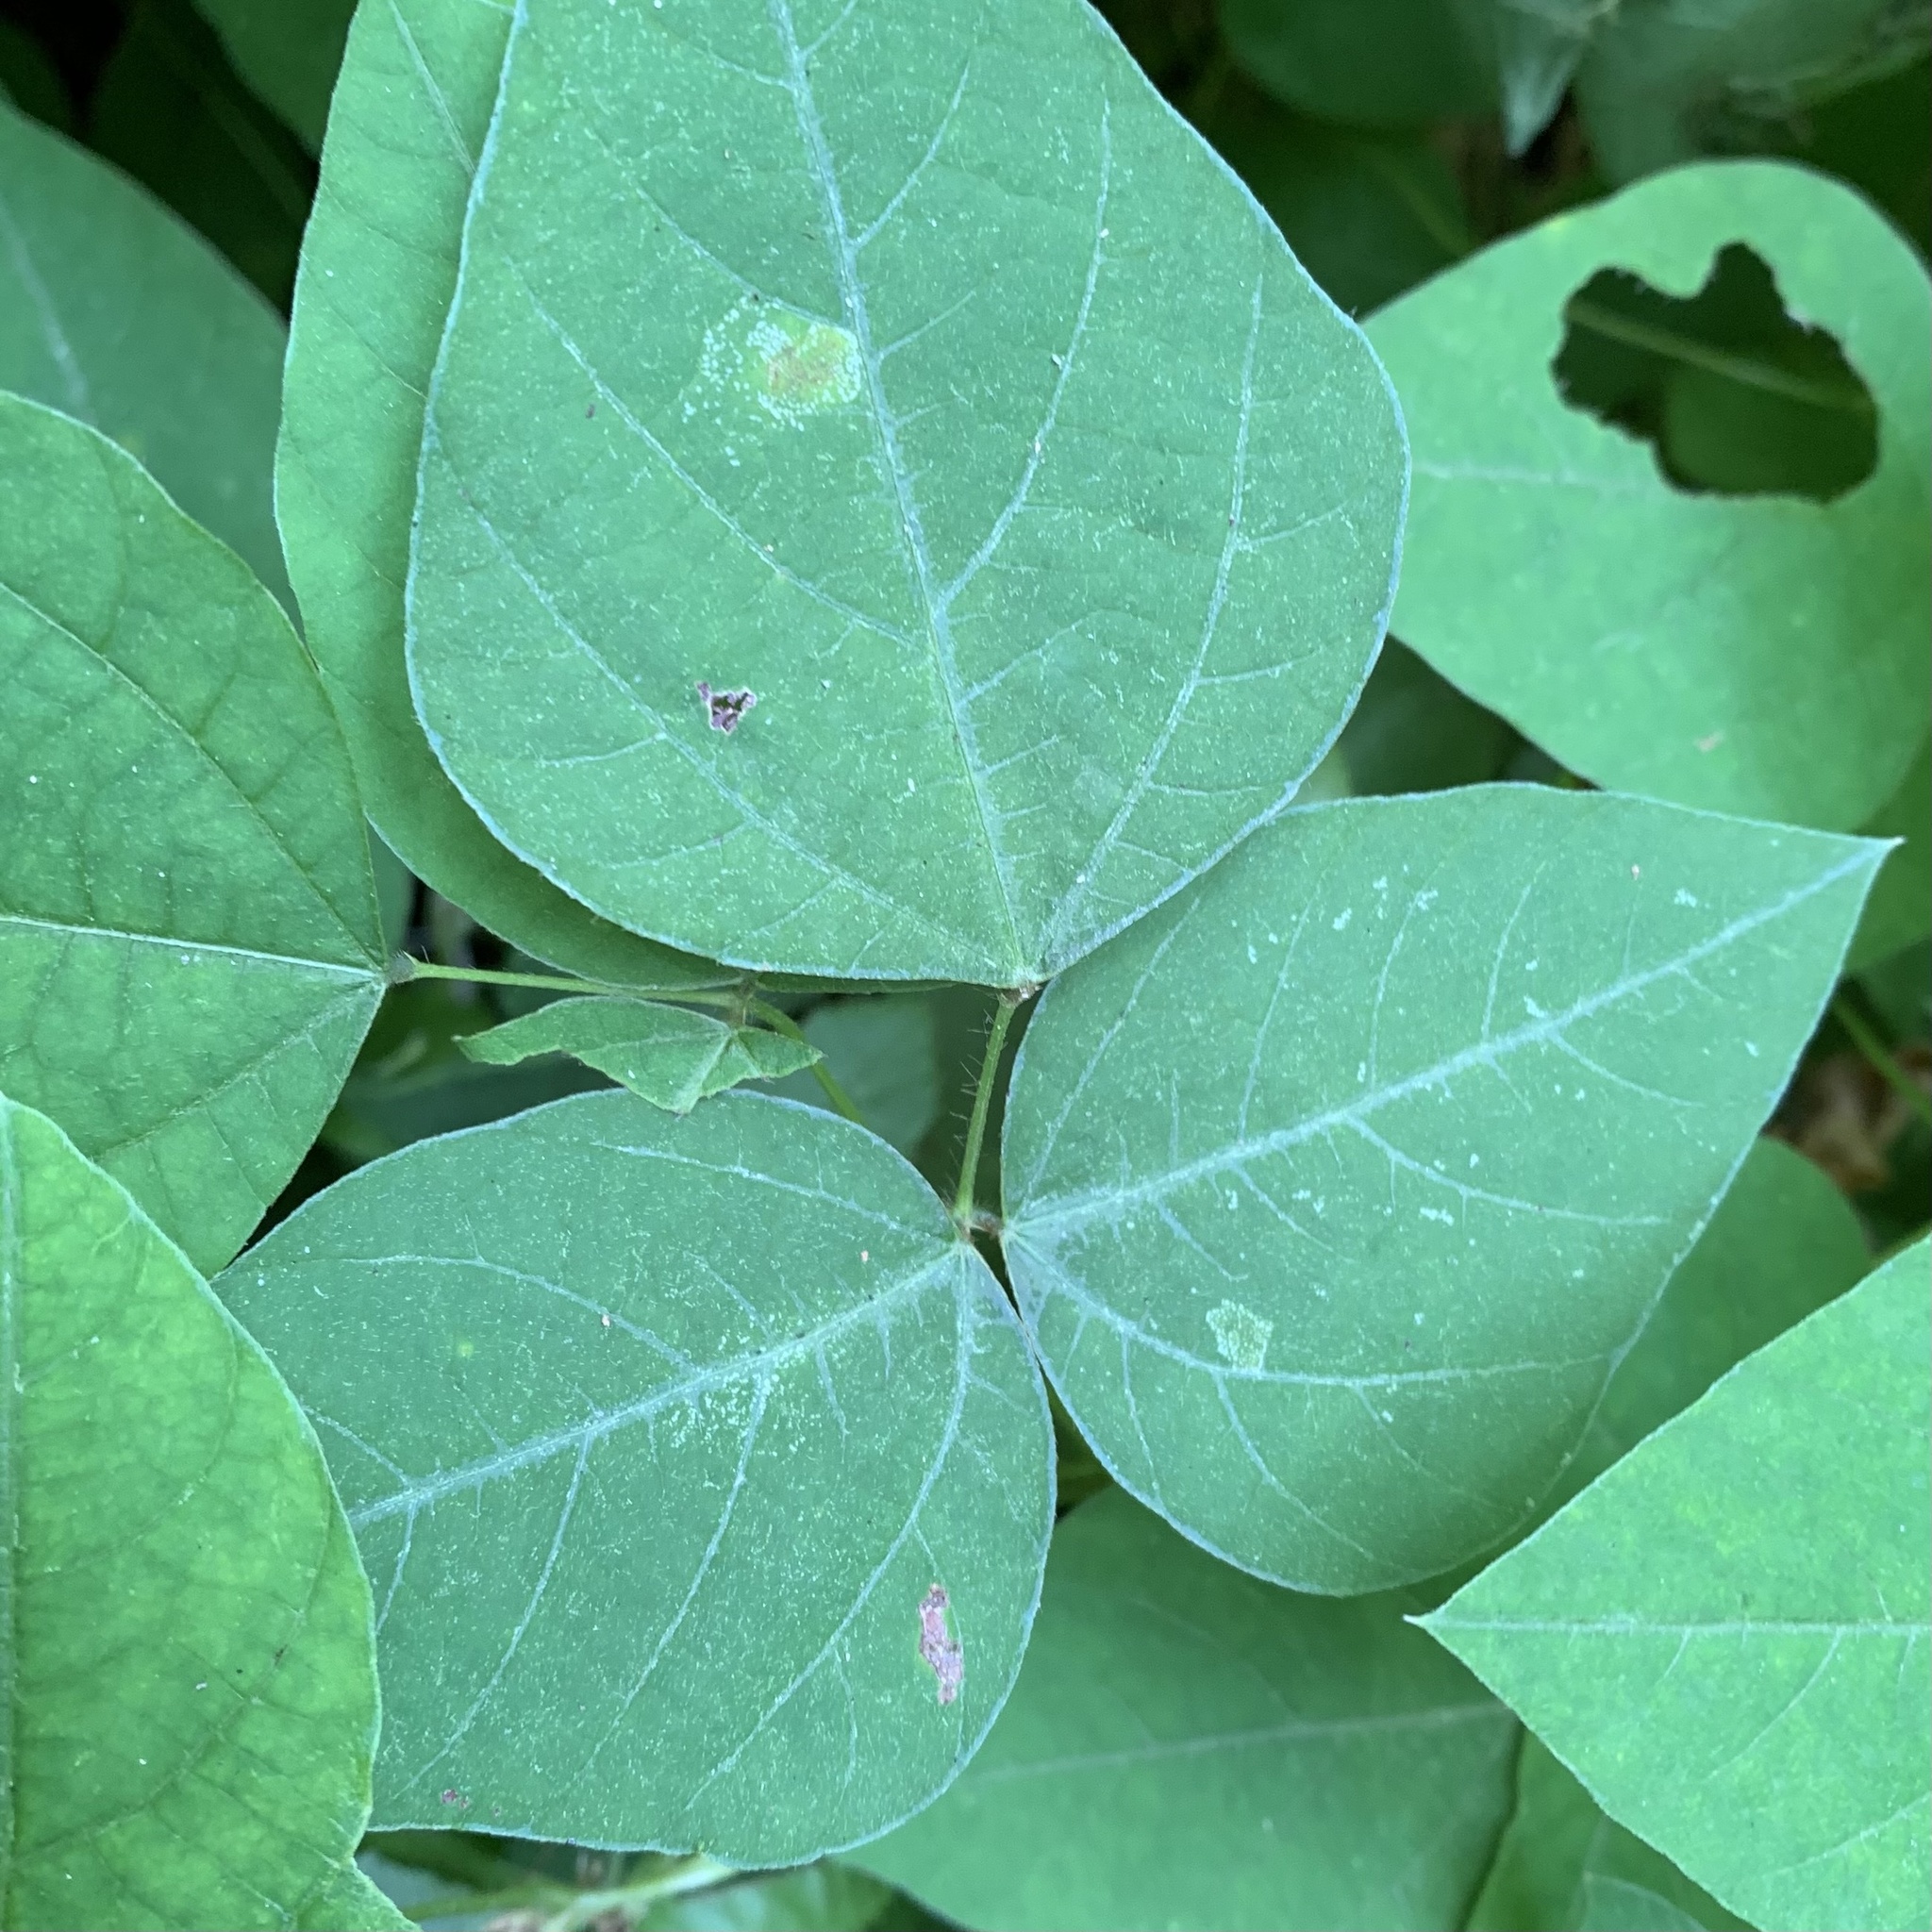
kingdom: Animalia
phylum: Arthropoda
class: Insecta
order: Lepidoptera
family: Gracillariidae
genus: Macrosaccus
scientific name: Macrosaccus morrisella
